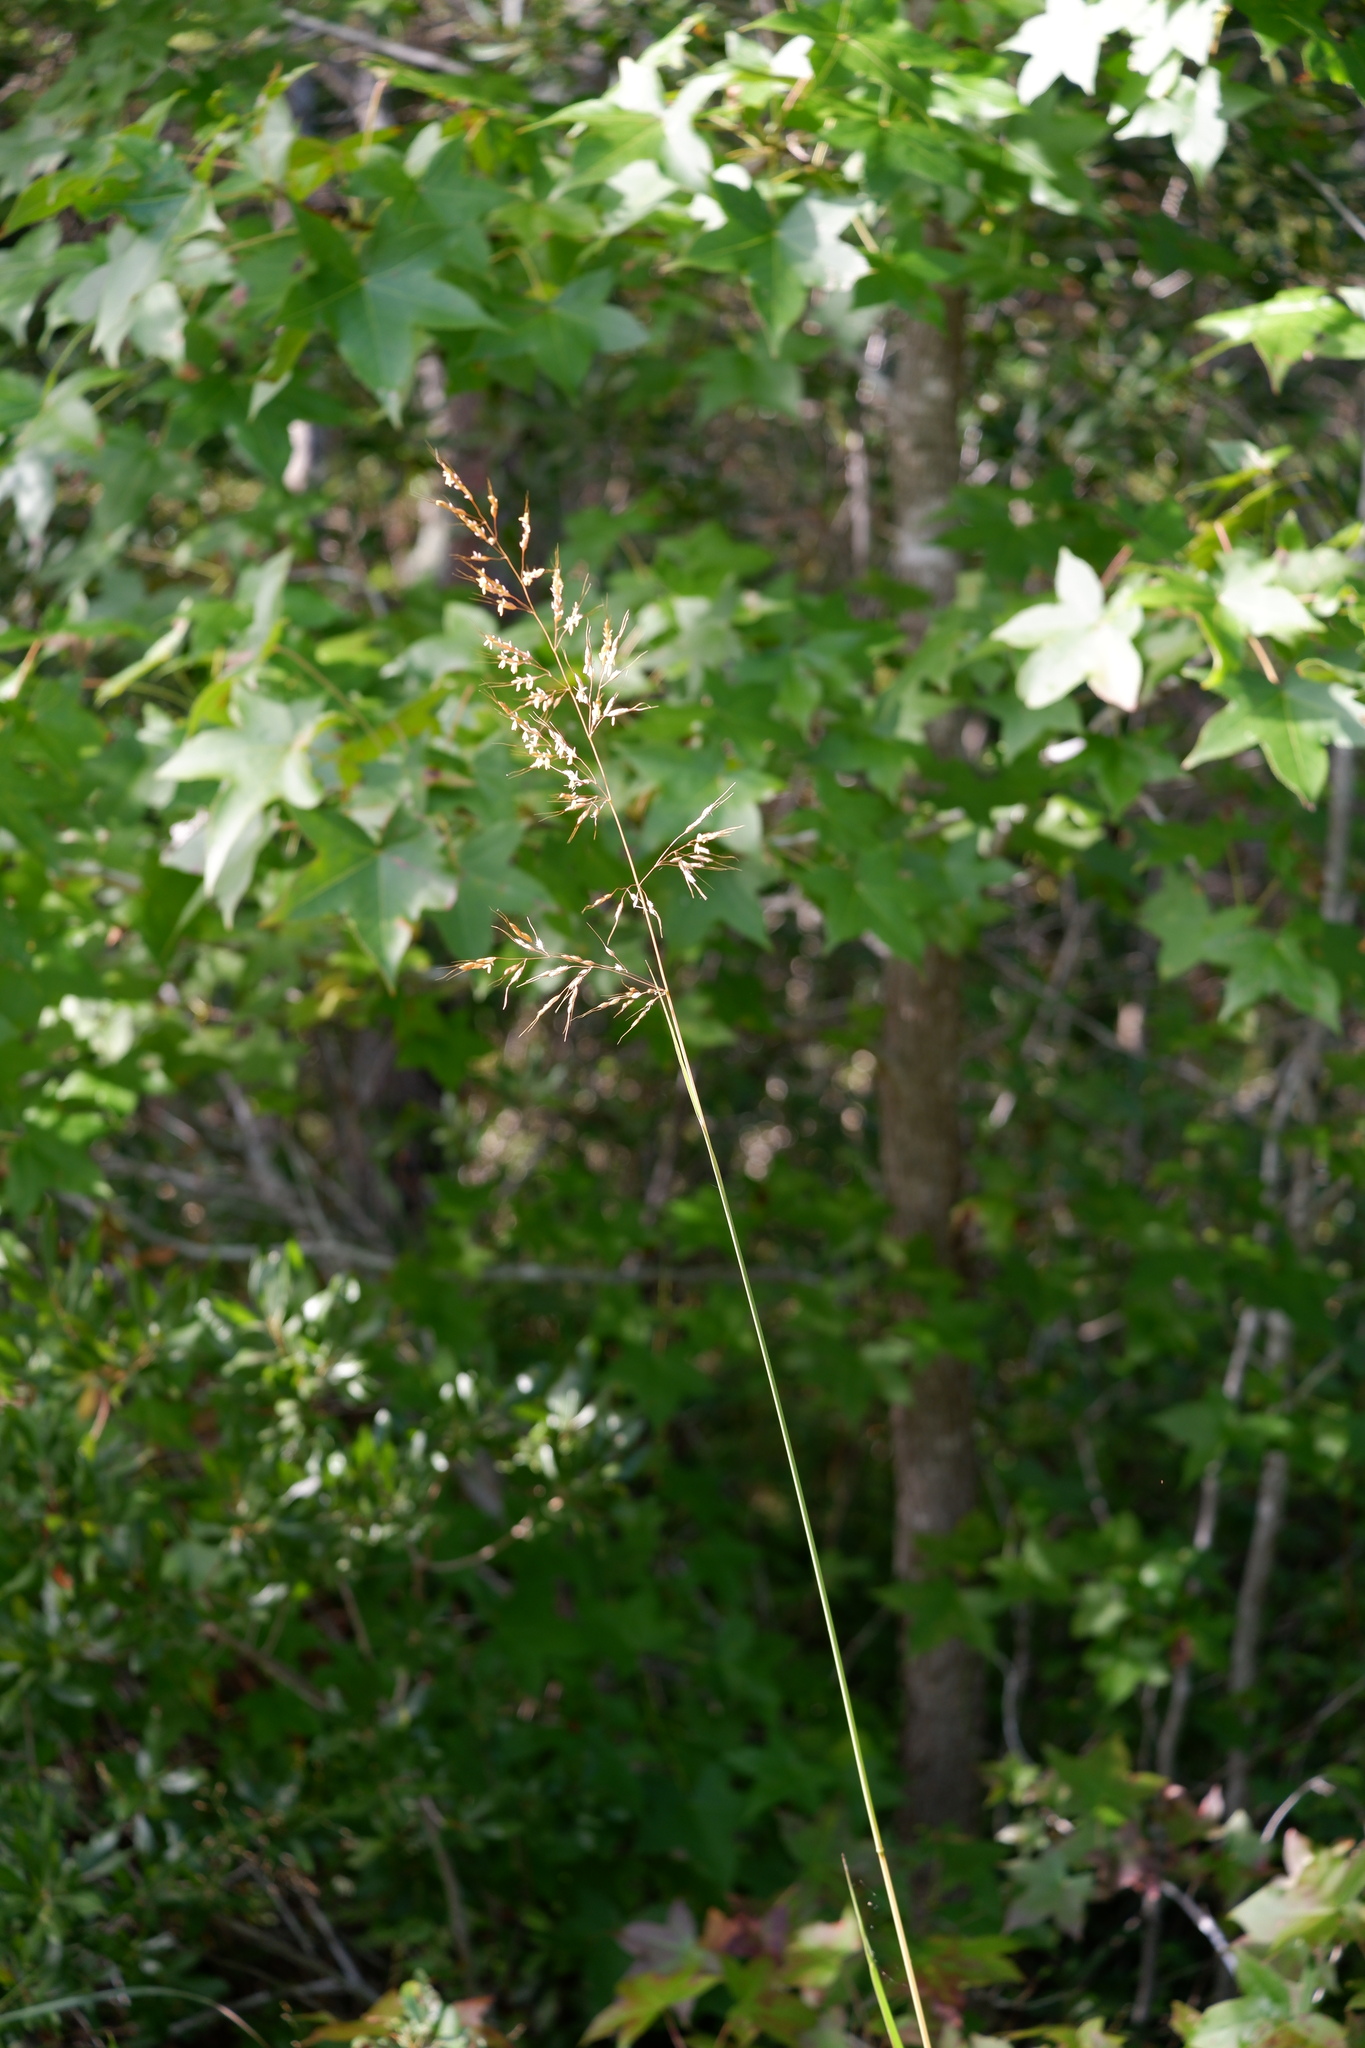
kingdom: Plantae
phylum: Tracheophyta
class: Liliopsida
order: Poales
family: Poaceae
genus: Sorghastrum
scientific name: Sorghastrum nutans
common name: Indian grass
